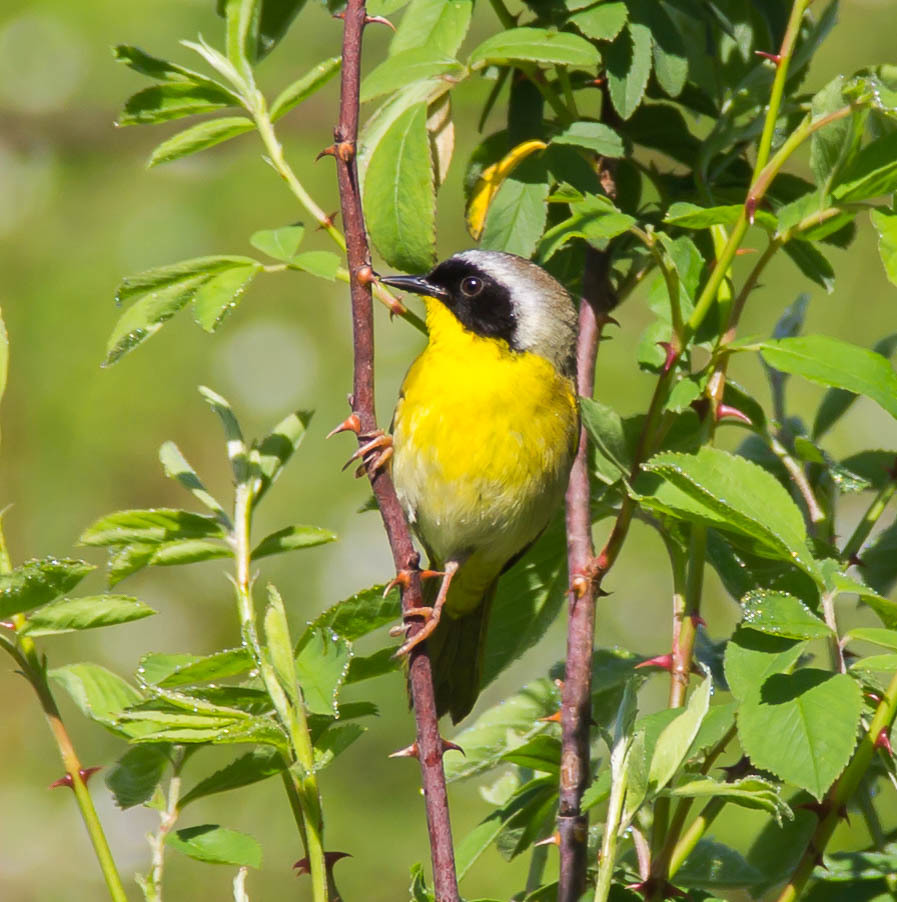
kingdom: Animalia
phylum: Chordata
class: Aves
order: Passeriformes
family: Parulidae
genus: Geothlypis
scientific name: Geothlypis trichas
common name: Common yellowthroat
